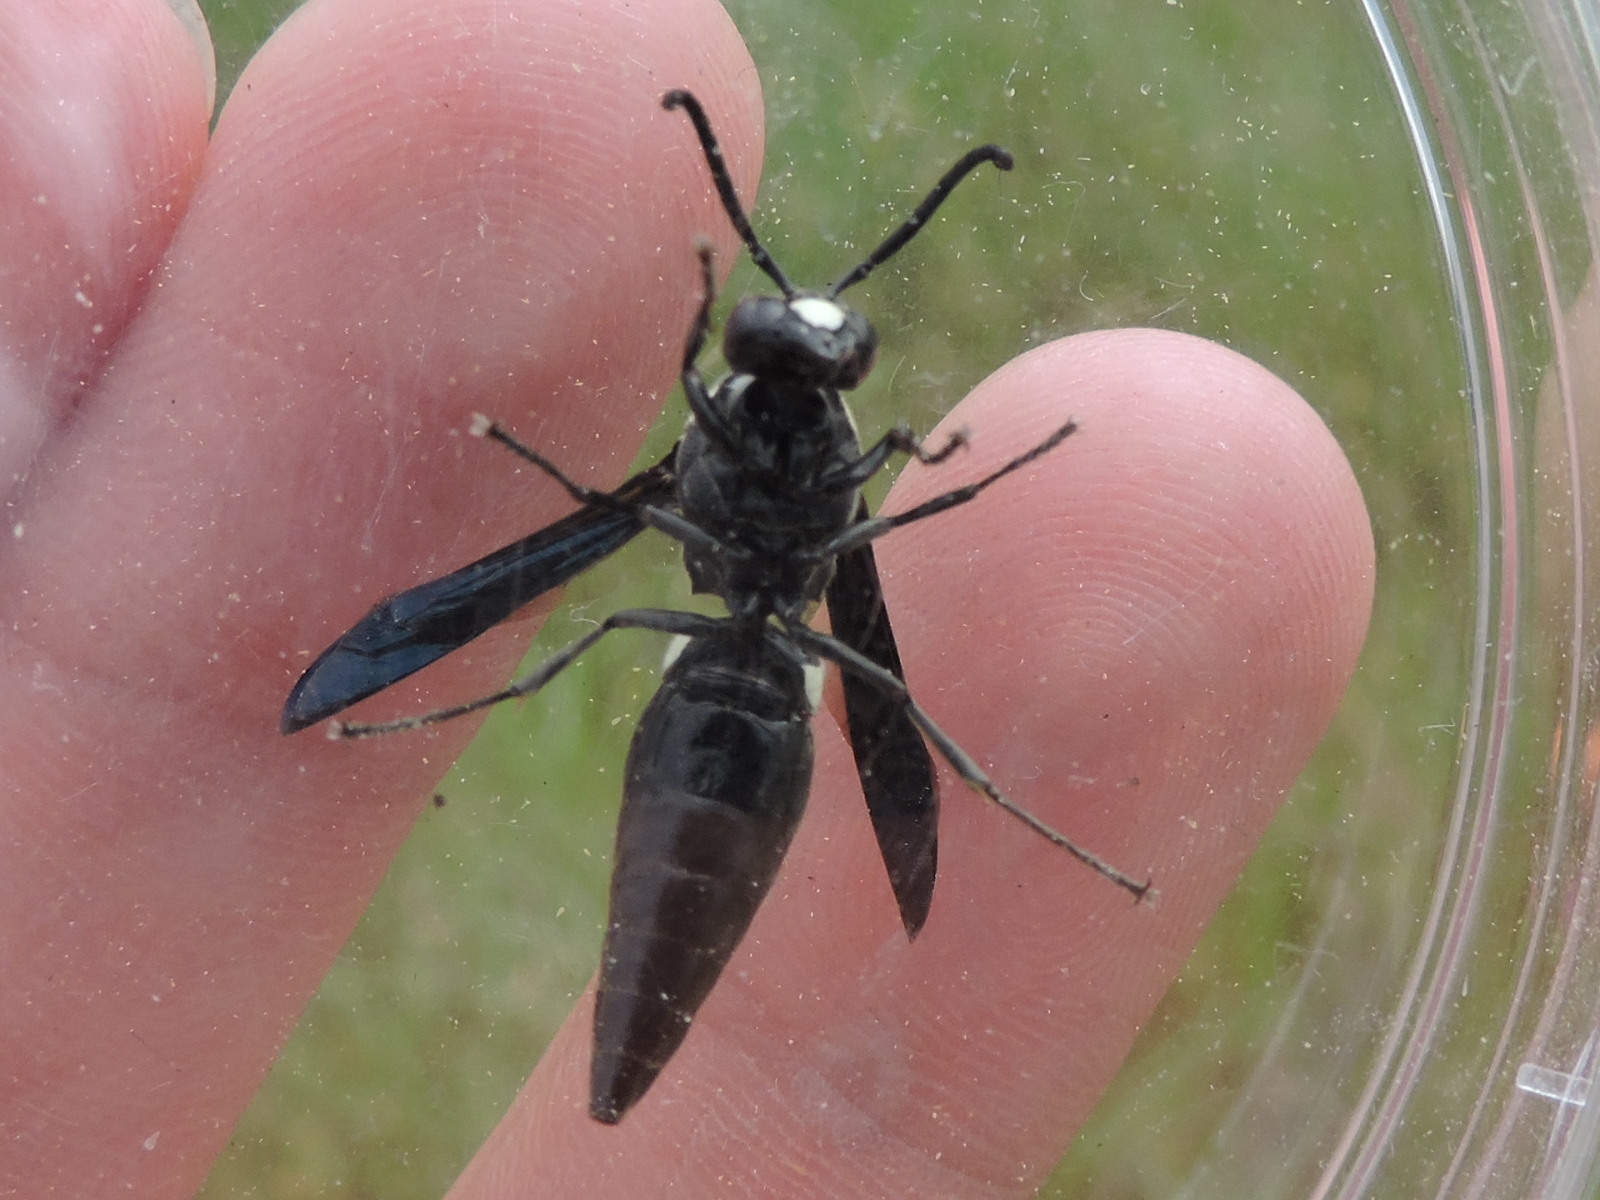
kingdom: Animalia
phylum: Arthropoda
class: Insecta
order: Hymenoptera
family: Eumenidae
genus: Monobia
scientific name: Monobia quadridens
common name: Four-toothed mason wasp
